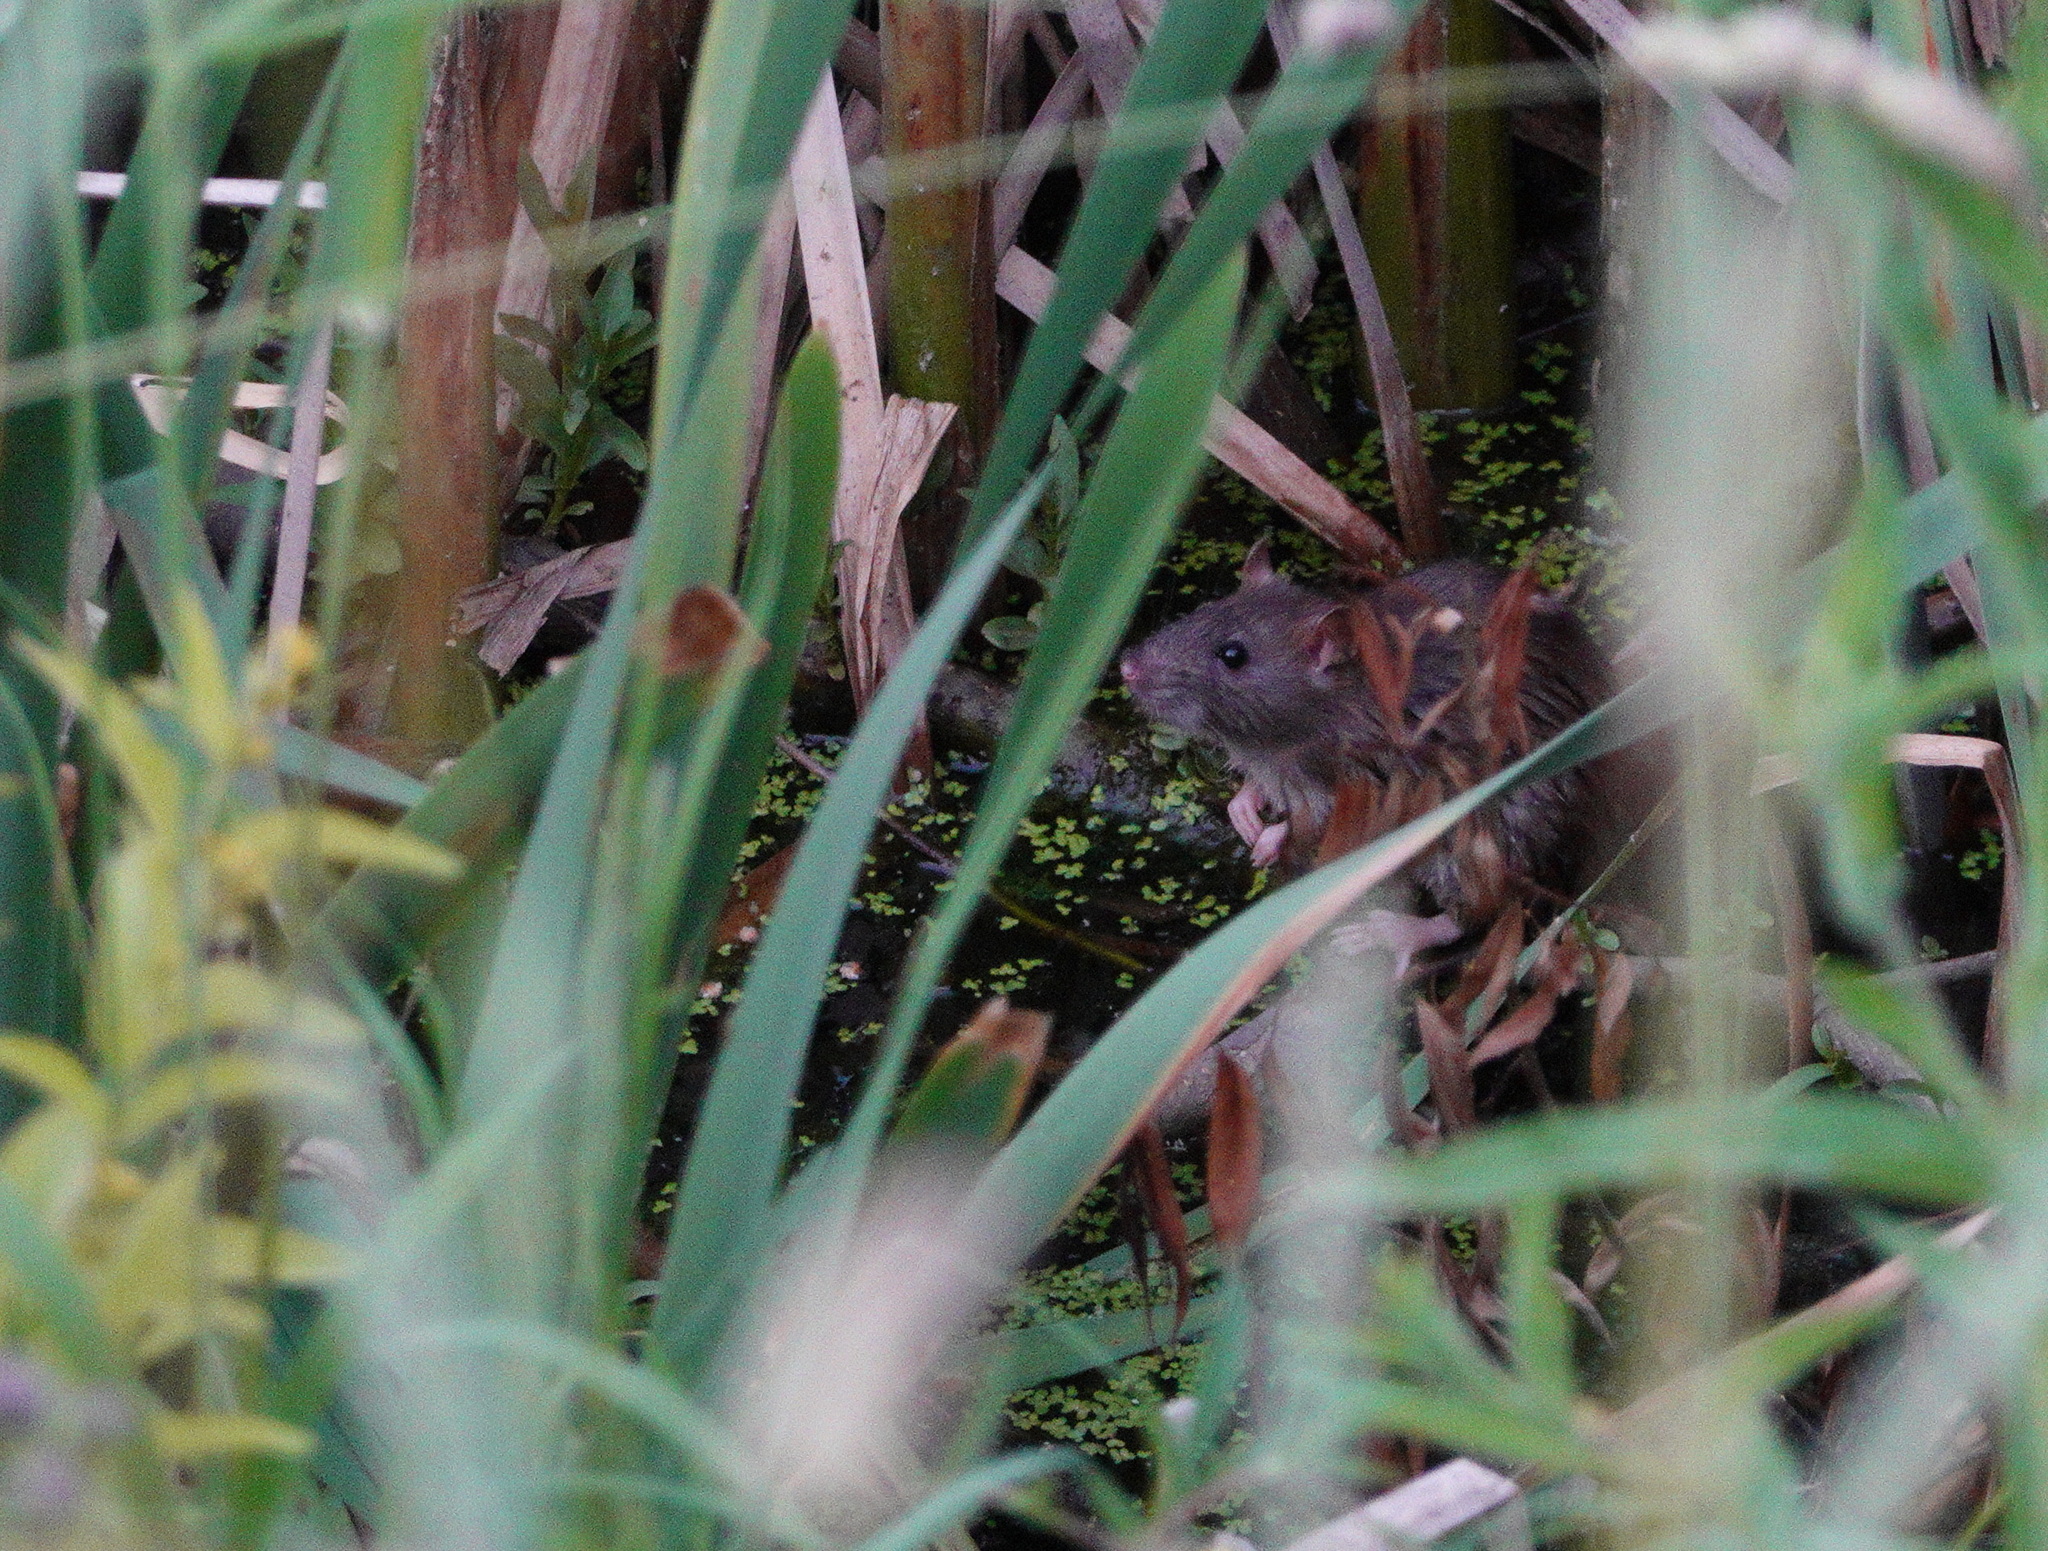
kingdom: Animalia
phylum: Chordata
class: Mammalia
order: Rodentia
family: Muridae
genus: Rattus
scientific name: Rattus norvegicus
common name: Brown rat
